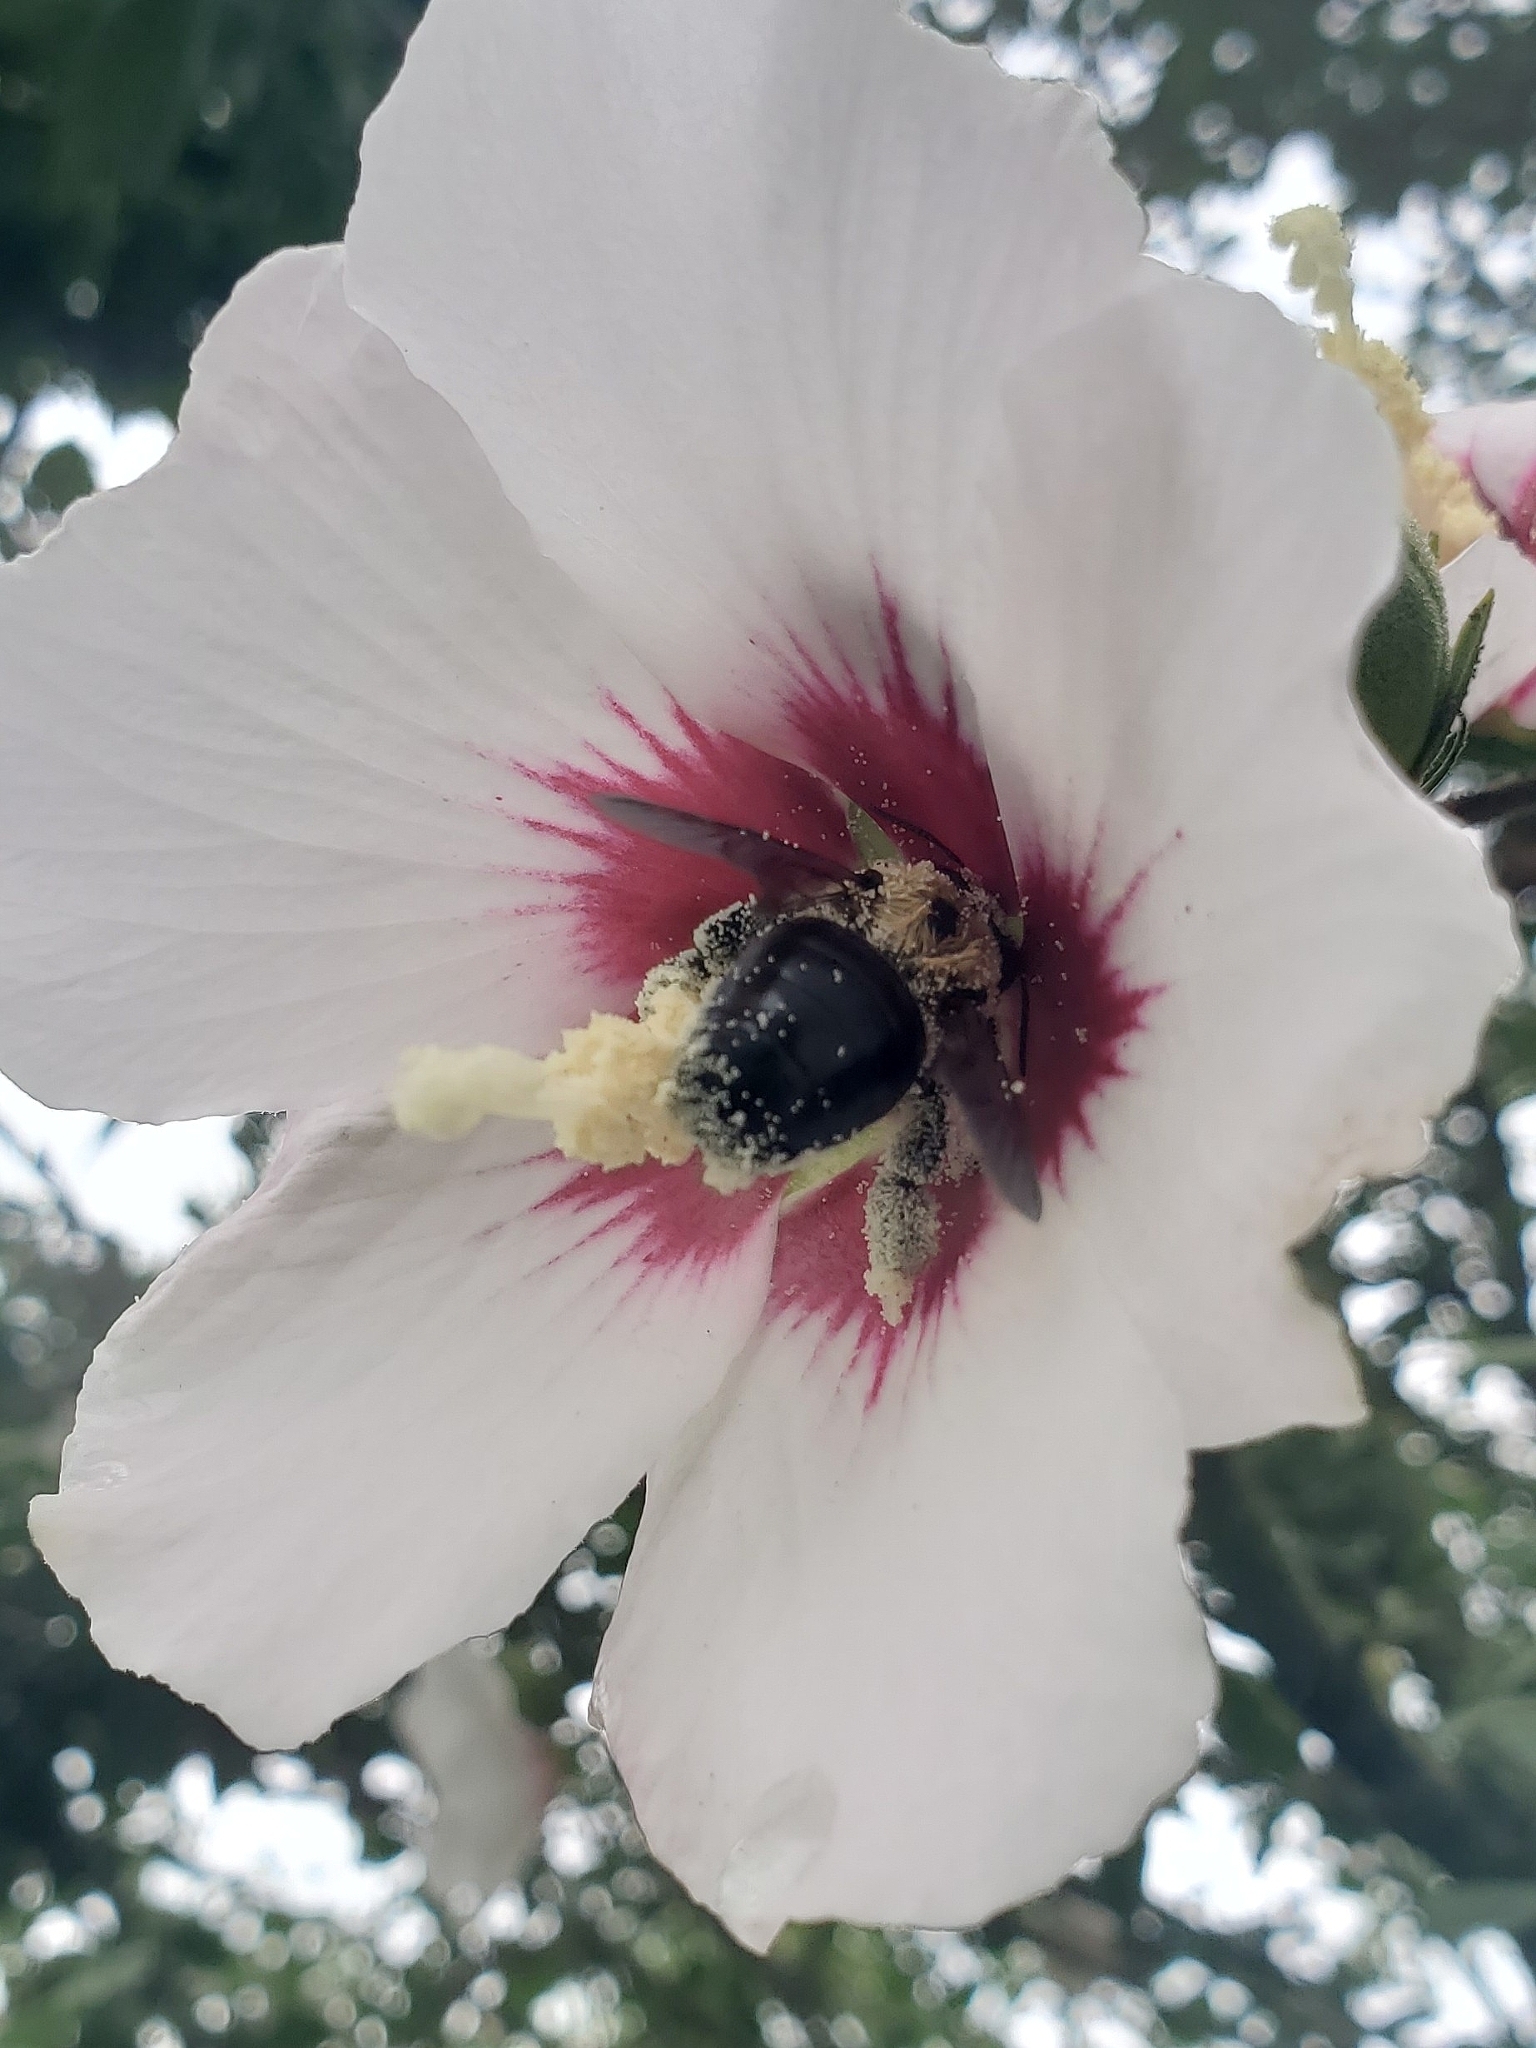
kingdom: Animalia
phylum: Arthropoda
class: Insecta
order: Hymenoptera
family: Apidae
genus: Xylocopa
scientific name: Xylocopa virginica
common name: Carpenter bee
